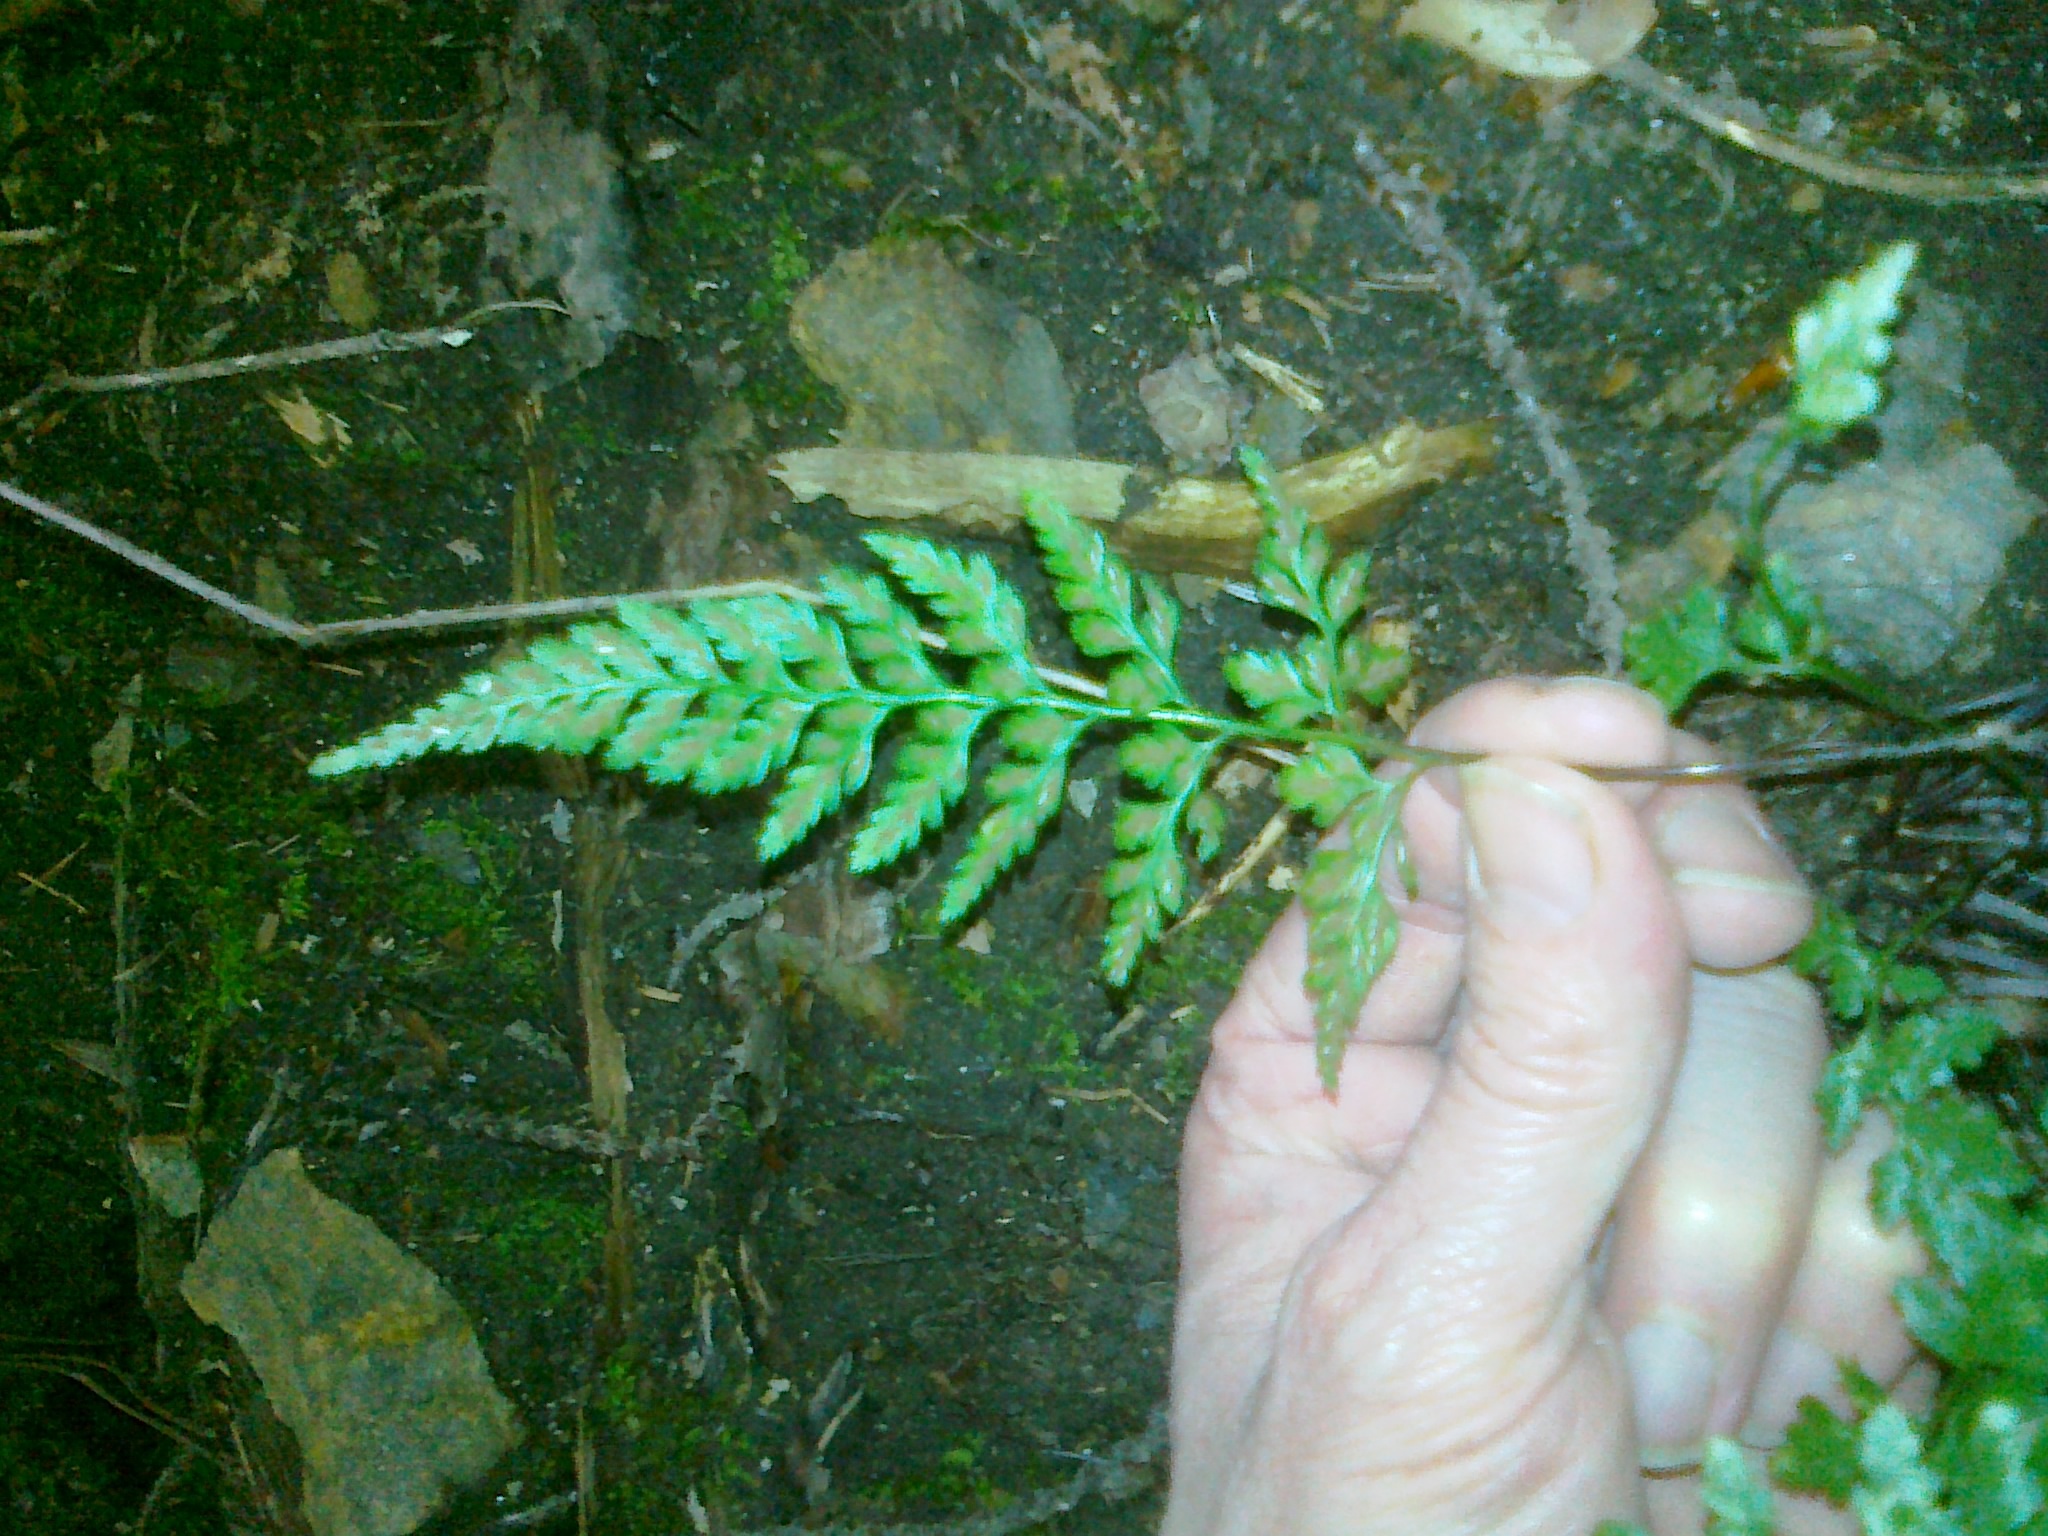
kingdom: Plantae
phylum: Tracheophyta
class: Polypodiopsida
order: Polypodiales
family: Aspleniaceae
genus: Asplenium
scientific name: Asplenium adiantum-nigrum
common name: Black spleenwort
